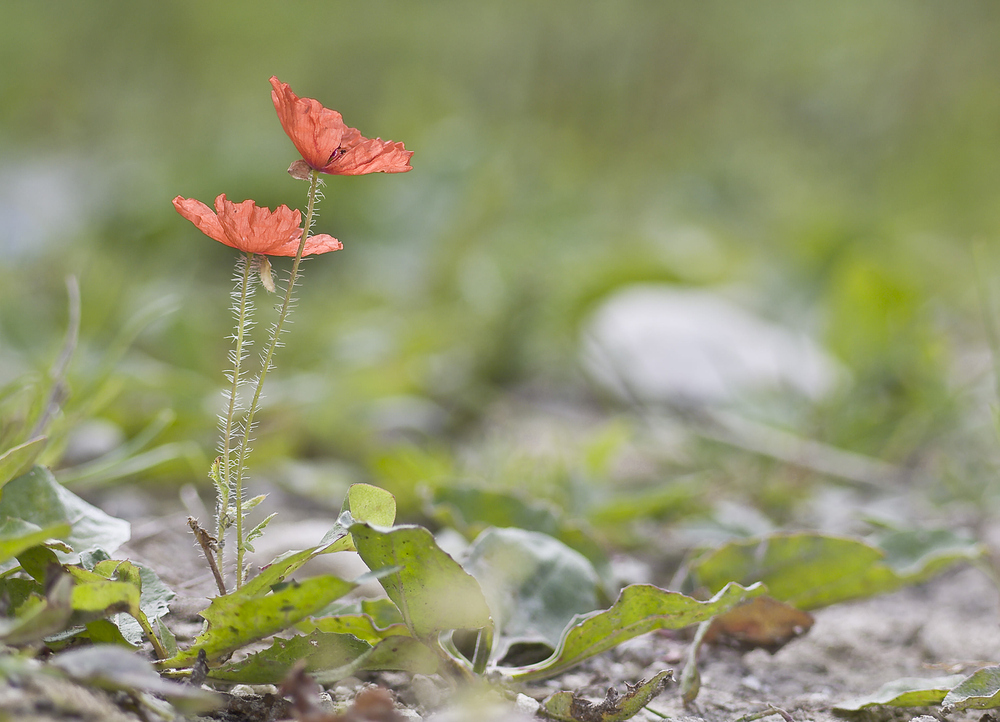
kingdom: Plantae
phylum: Tracheophyta
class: Magnoliopsida
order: Ranunculales
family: Papaveraceae
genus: Papaver
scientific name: Papaver rhoeas
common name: Corn poppy
